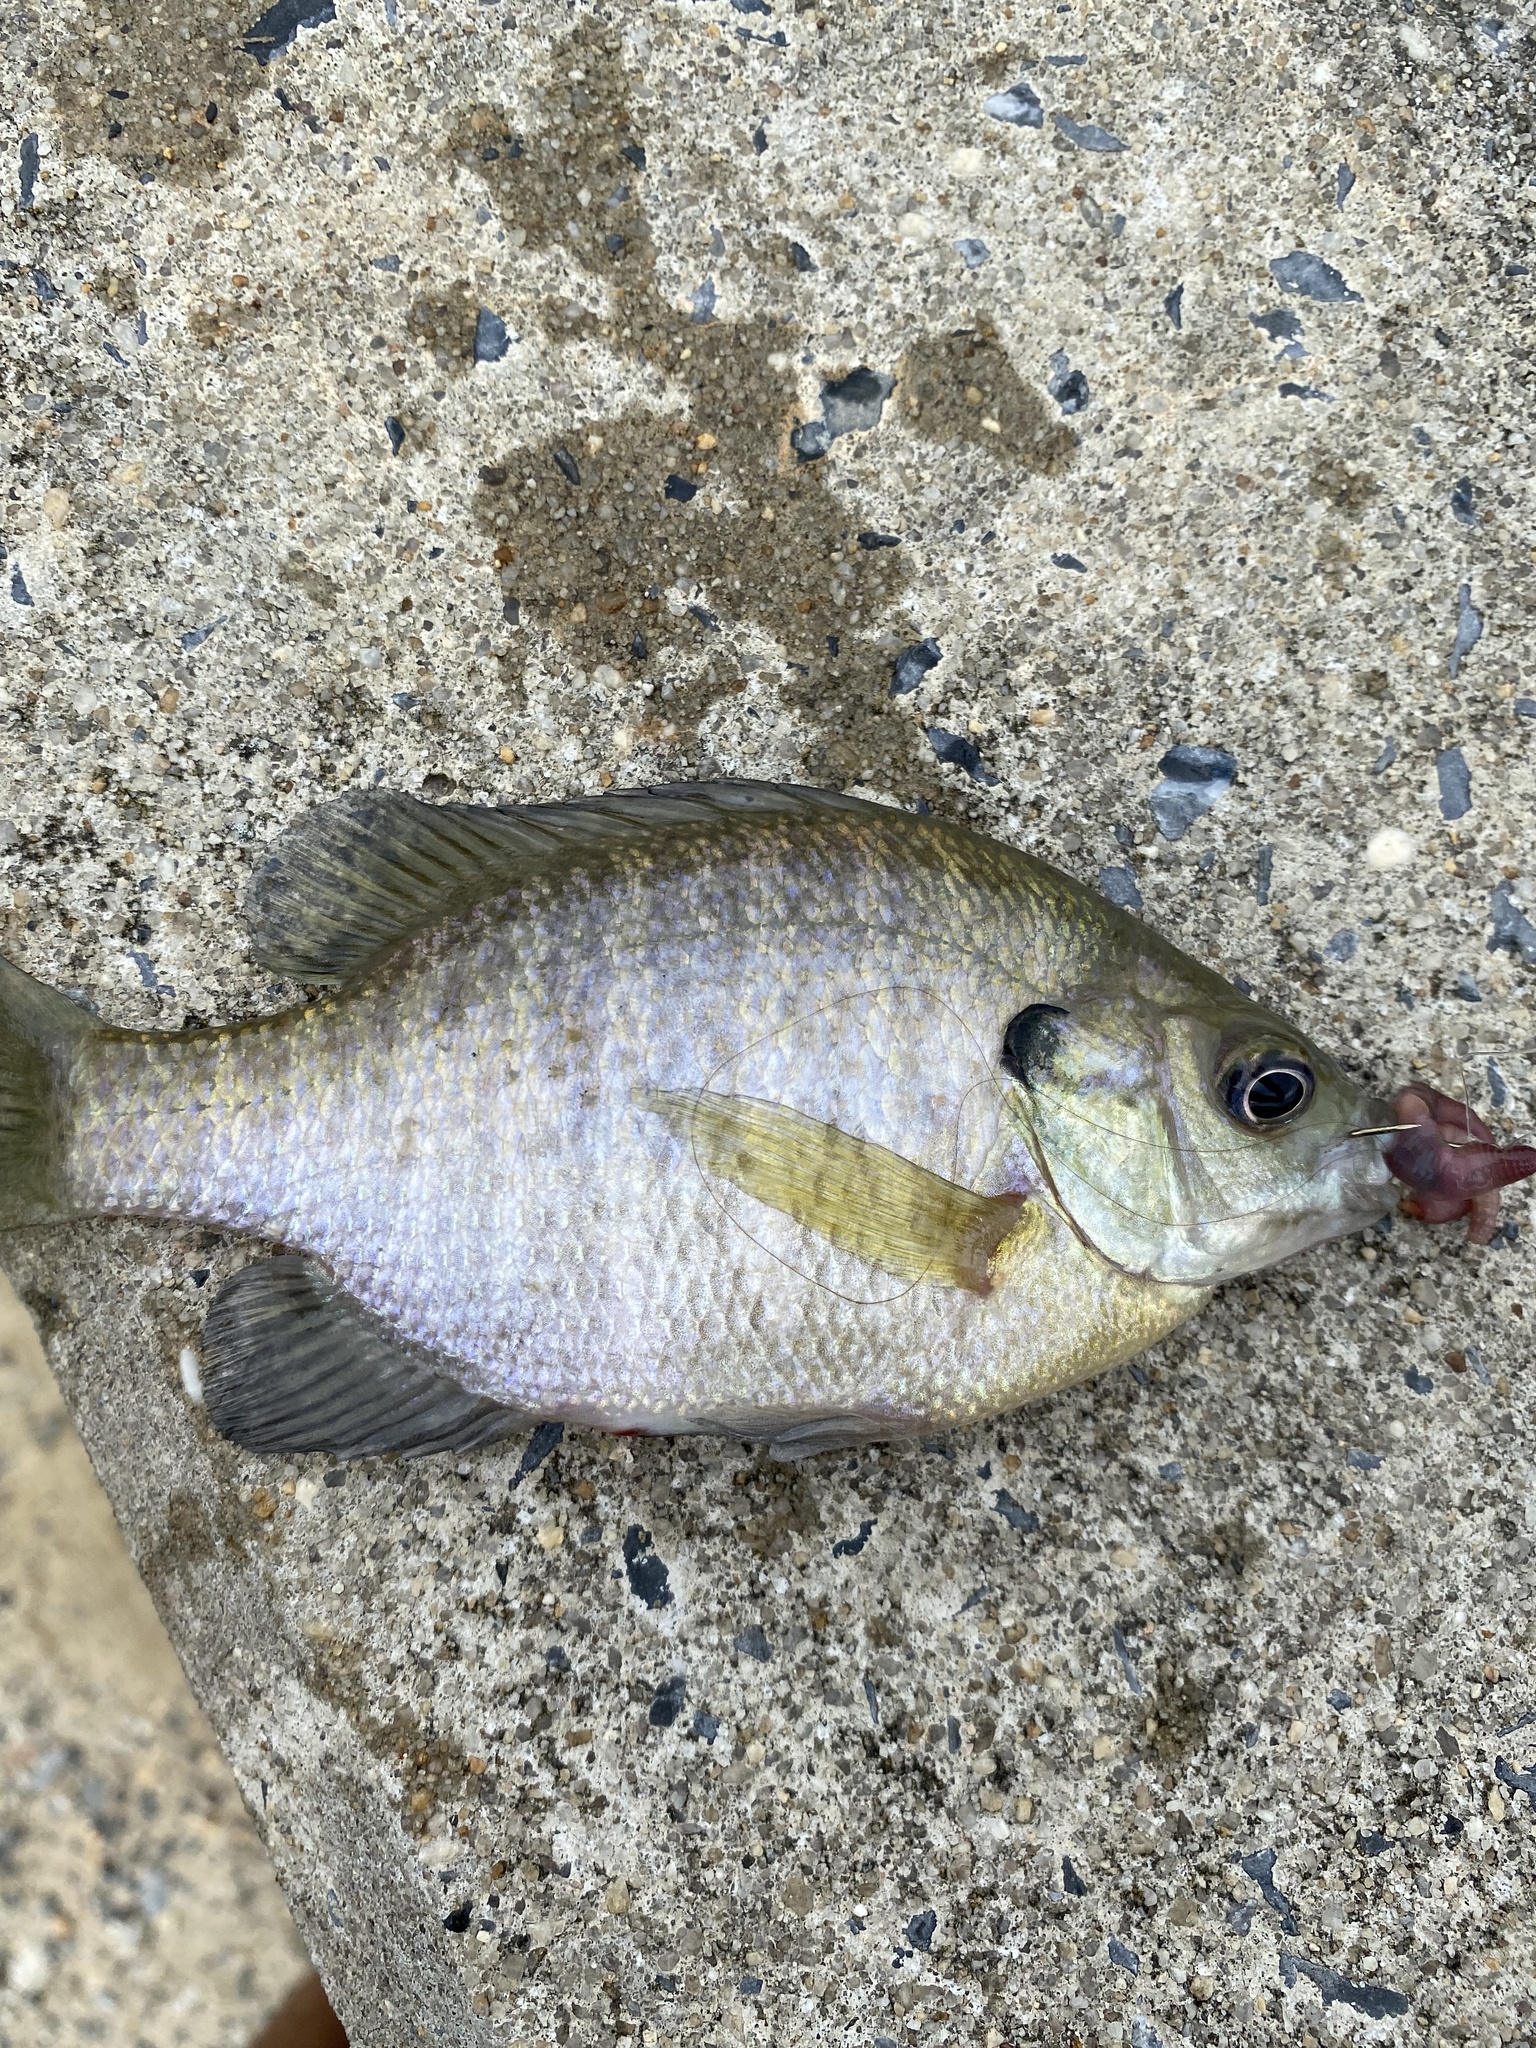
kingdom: Animalia
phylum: Chordata
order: Perciformes
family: Centrarchidae
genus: Lepomis
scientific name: Lepomis macrochirus
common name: Bluegill
